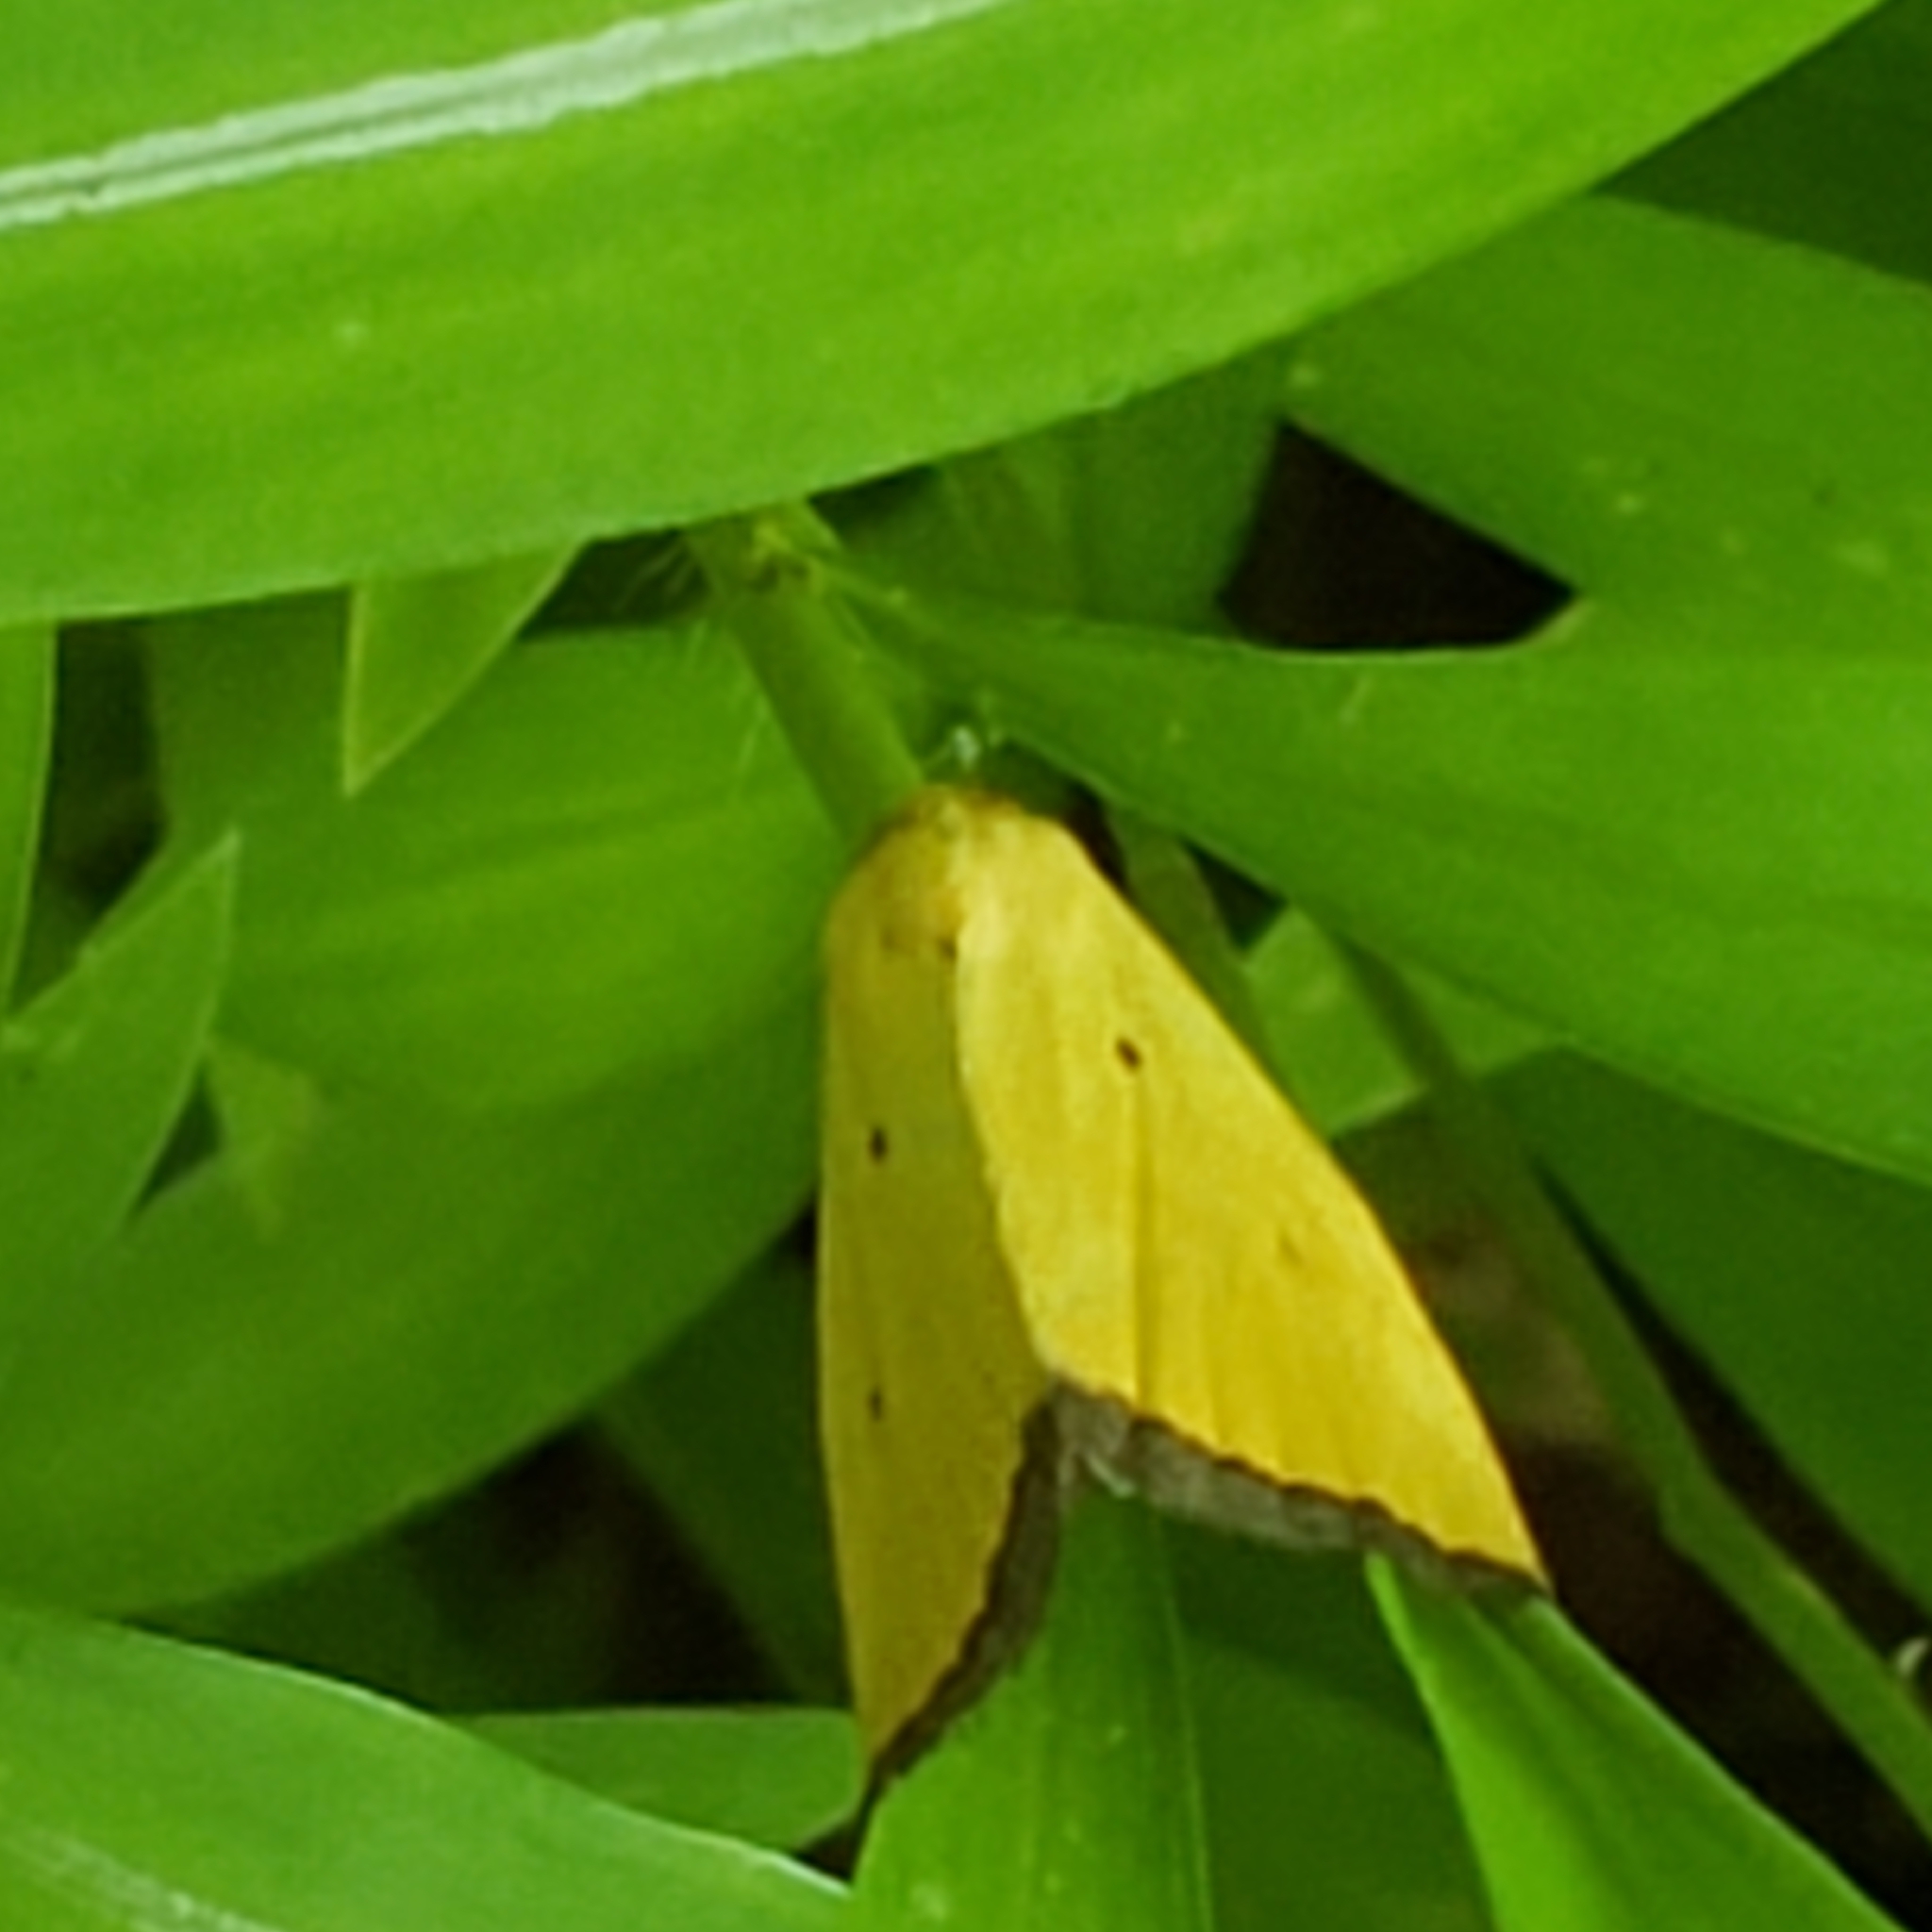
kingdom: Animalia
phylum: Arthropoda
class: Insecta
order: Lepidoptera
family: Noctuidae
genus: Marimatha
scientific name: Marimatha nigrofimbria
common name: Black-bordered lemon moth
